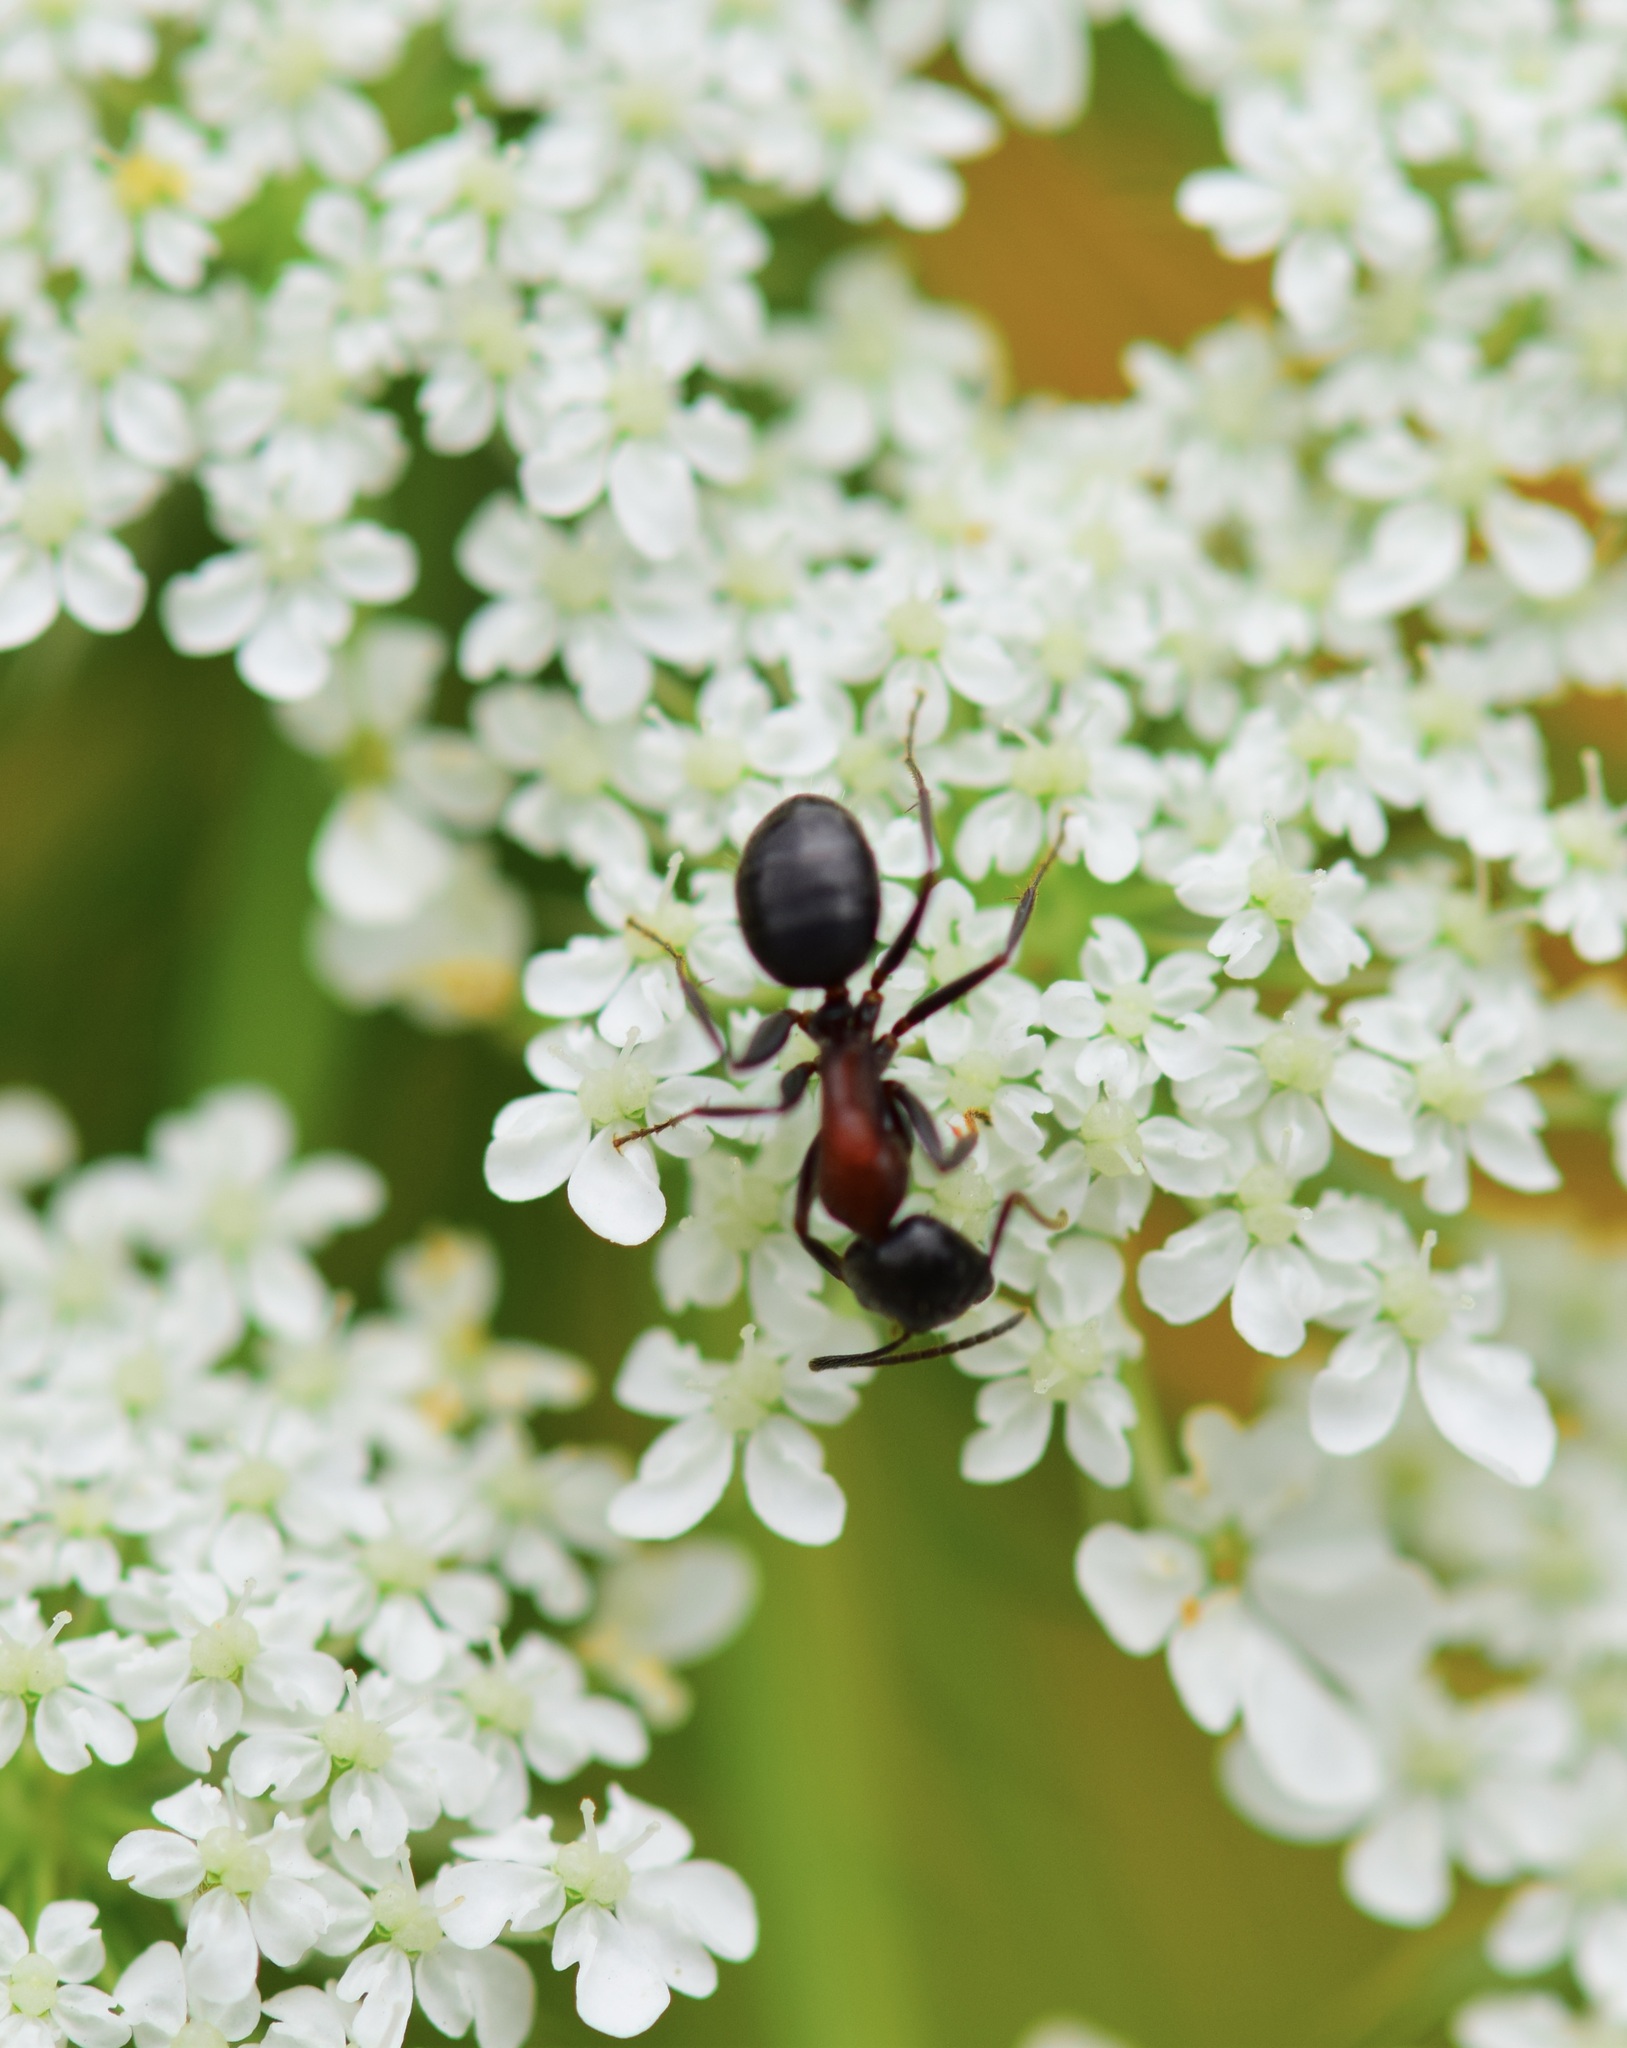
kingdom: Animalia
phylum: Arthropoda
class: Insecta
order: Hymenoptera
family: Formicidae
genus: Camponotus
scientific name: Camponotus novaeboracensis
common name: New york carpenter ant
